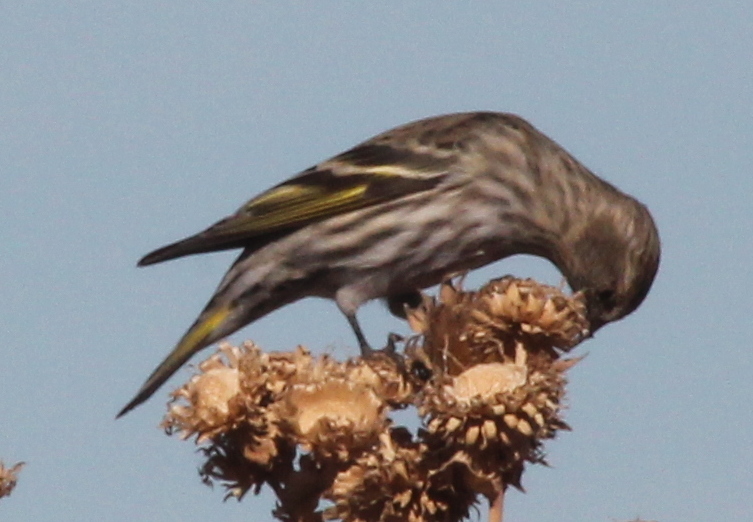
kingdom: Animalia
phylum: Chordata
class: Aves
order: Passeriformes
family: Fringillidae
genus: Spinus
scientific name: Spinus pinus
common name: Pine siskin
